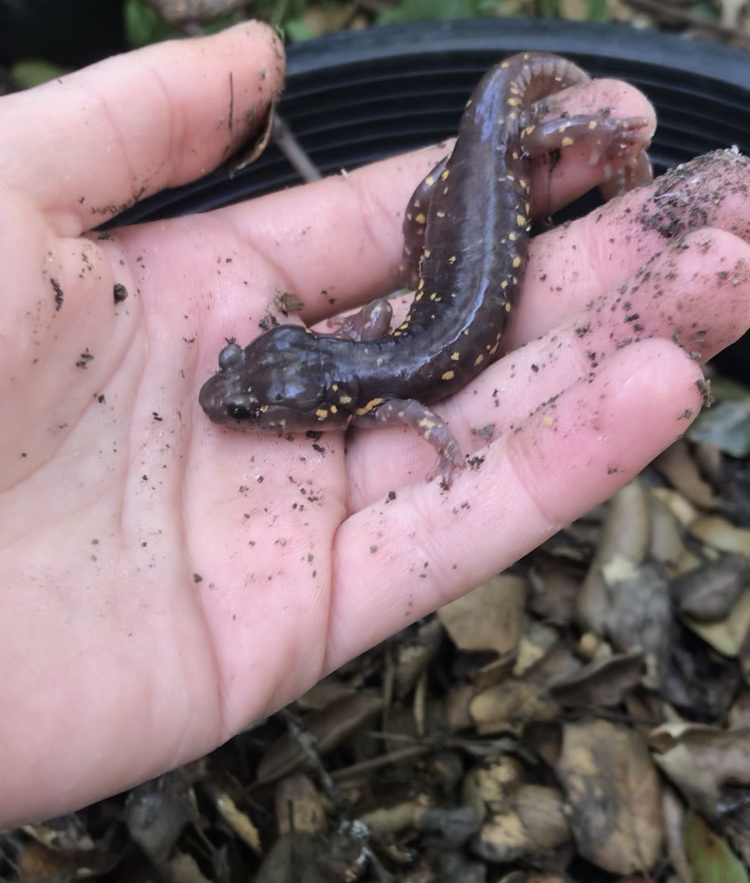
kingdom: Animalia
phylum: Chordata
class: Amphibia
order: Caudata
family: Plethodontidae
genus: Aneides
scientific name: Aneides lugubris
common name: Arboreal salamander
